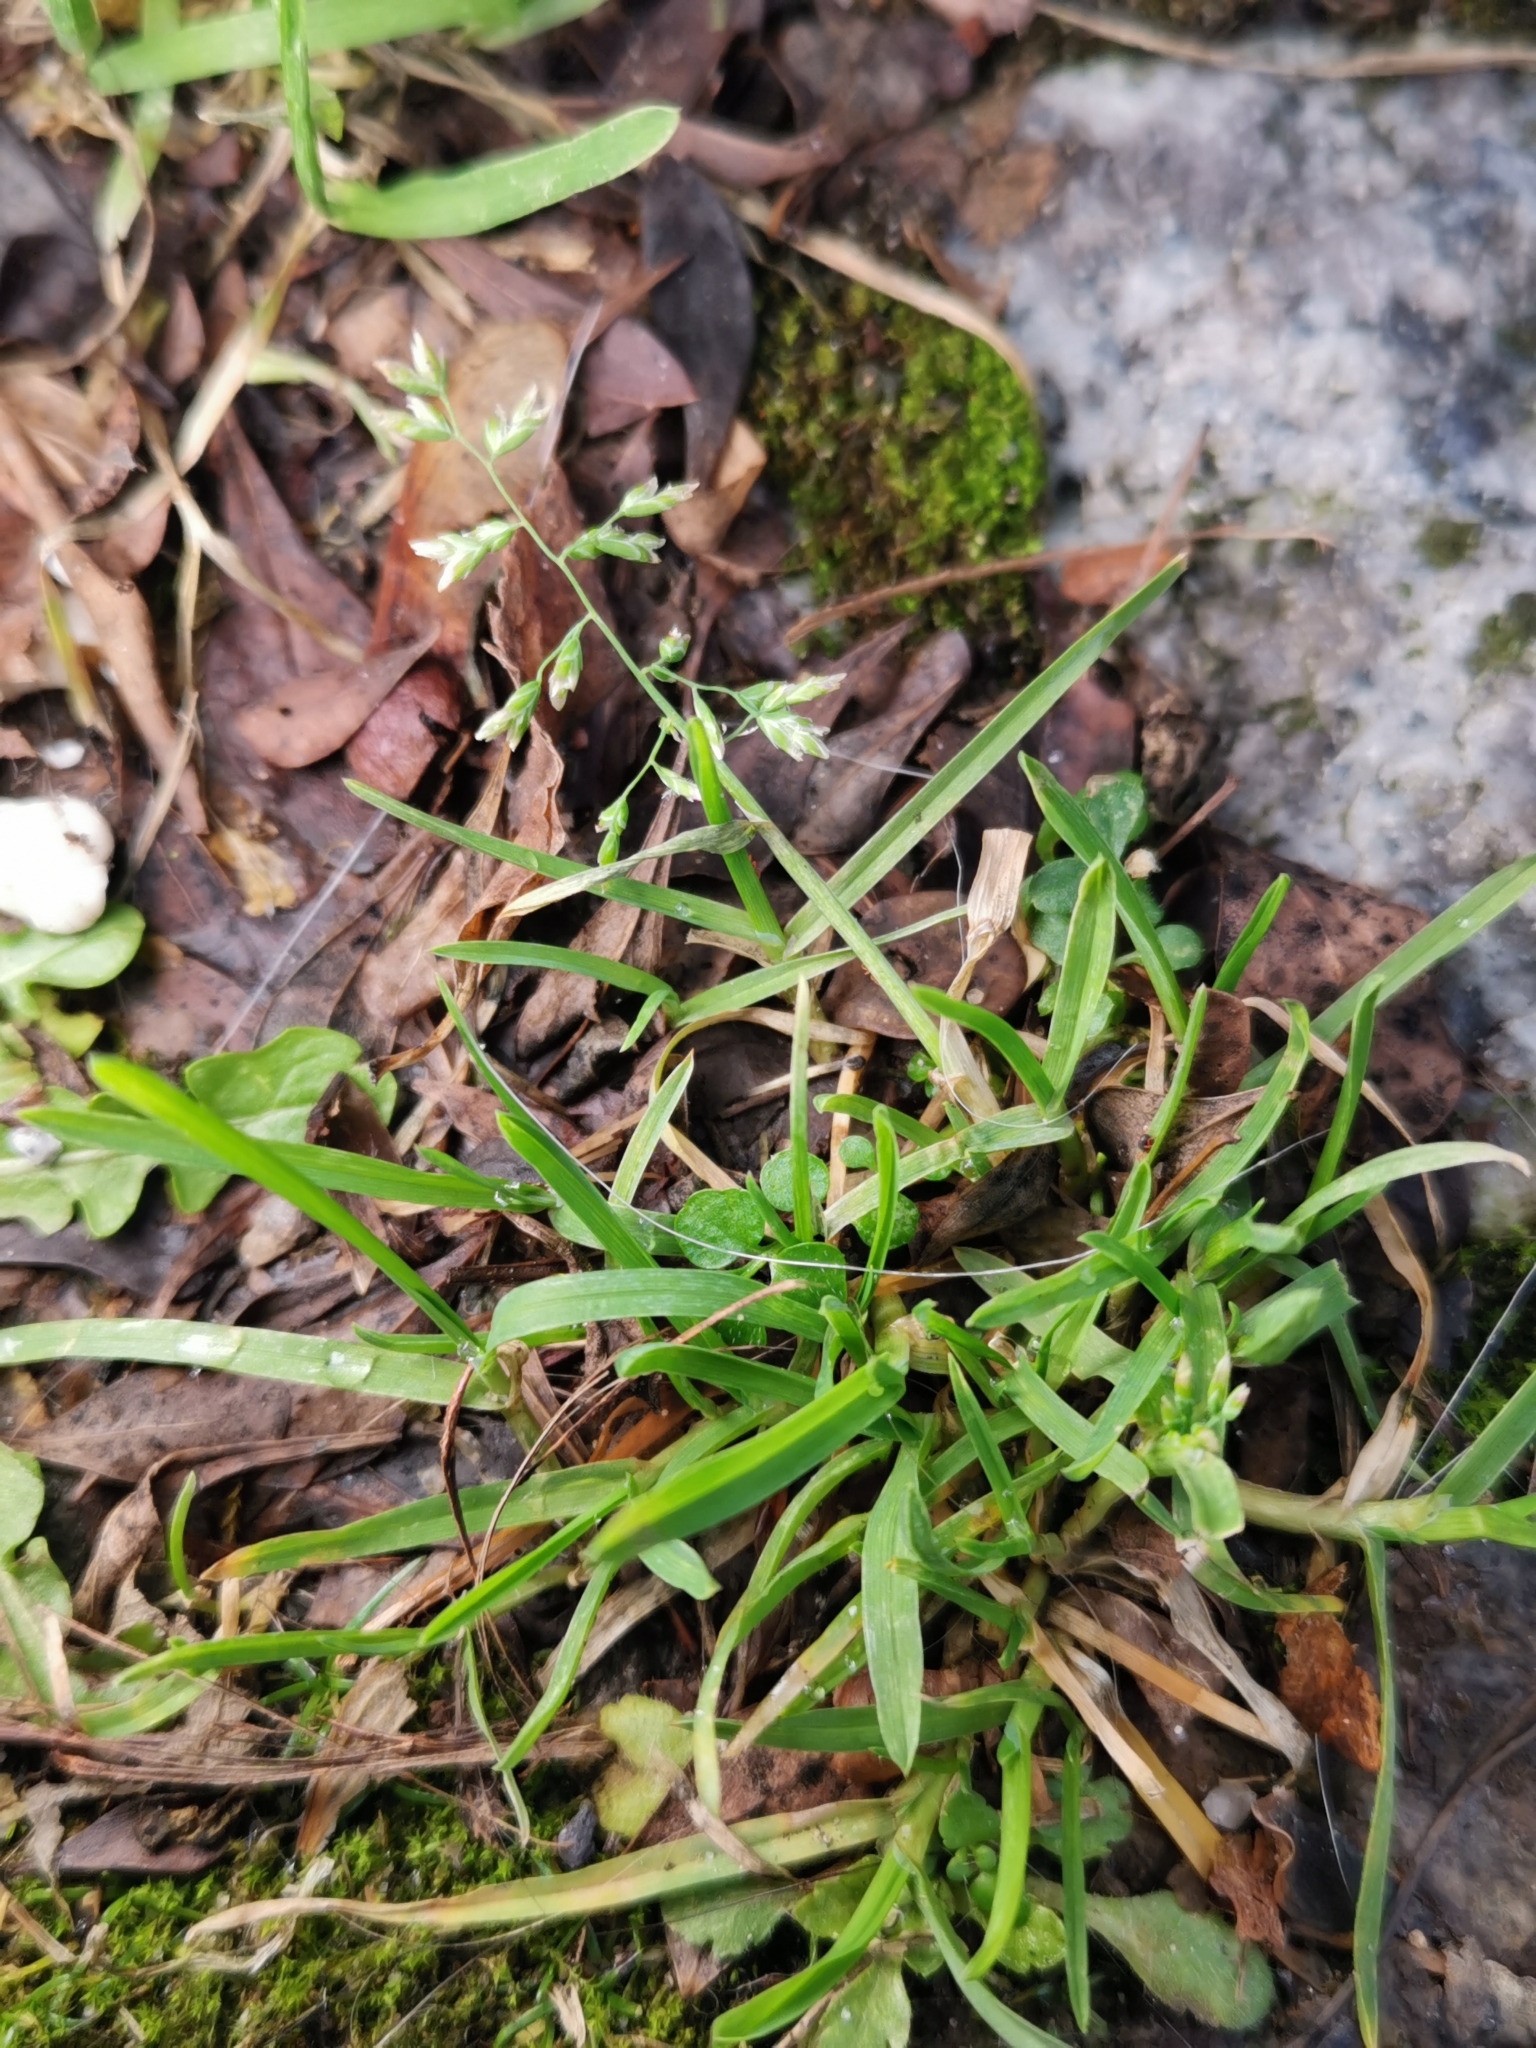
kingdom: Plantae
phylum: Tracheophyta
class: Liliopsida
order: Poales
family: Poaceae
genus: Poa
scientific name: Poa annua
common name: Annual bluegrass
